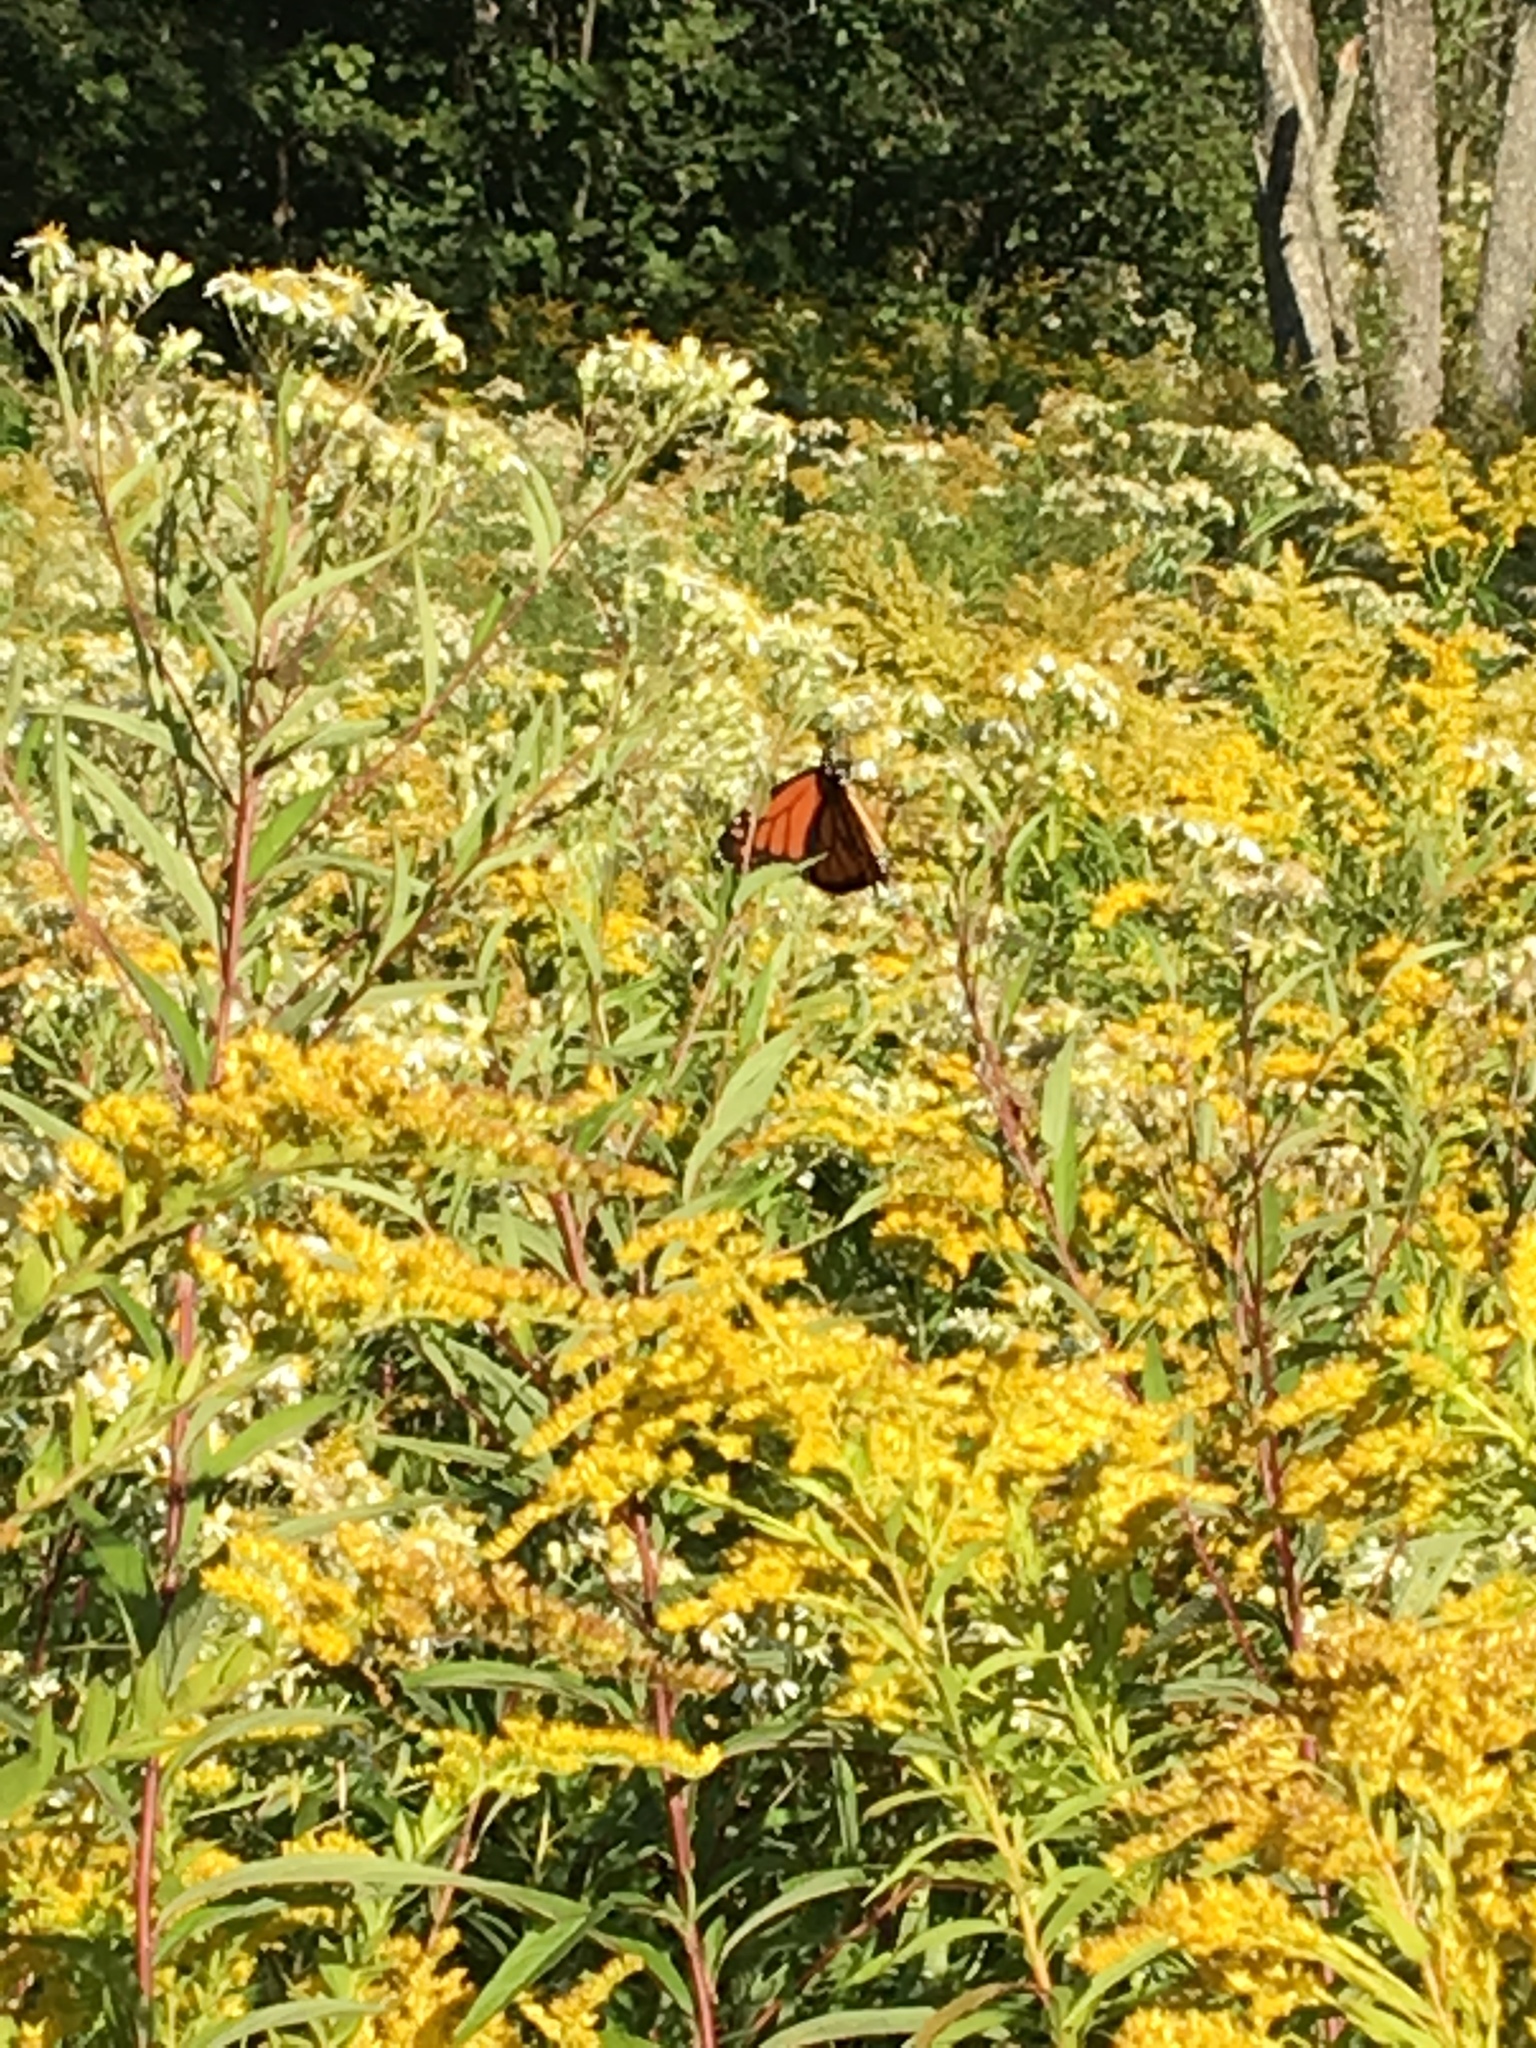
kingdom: Animalia
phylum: Arthropoda
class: Insecta
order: Lepidoptera
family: Nymphalidae
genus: Danaus
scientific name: Danaus plexippus
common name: Monarch
